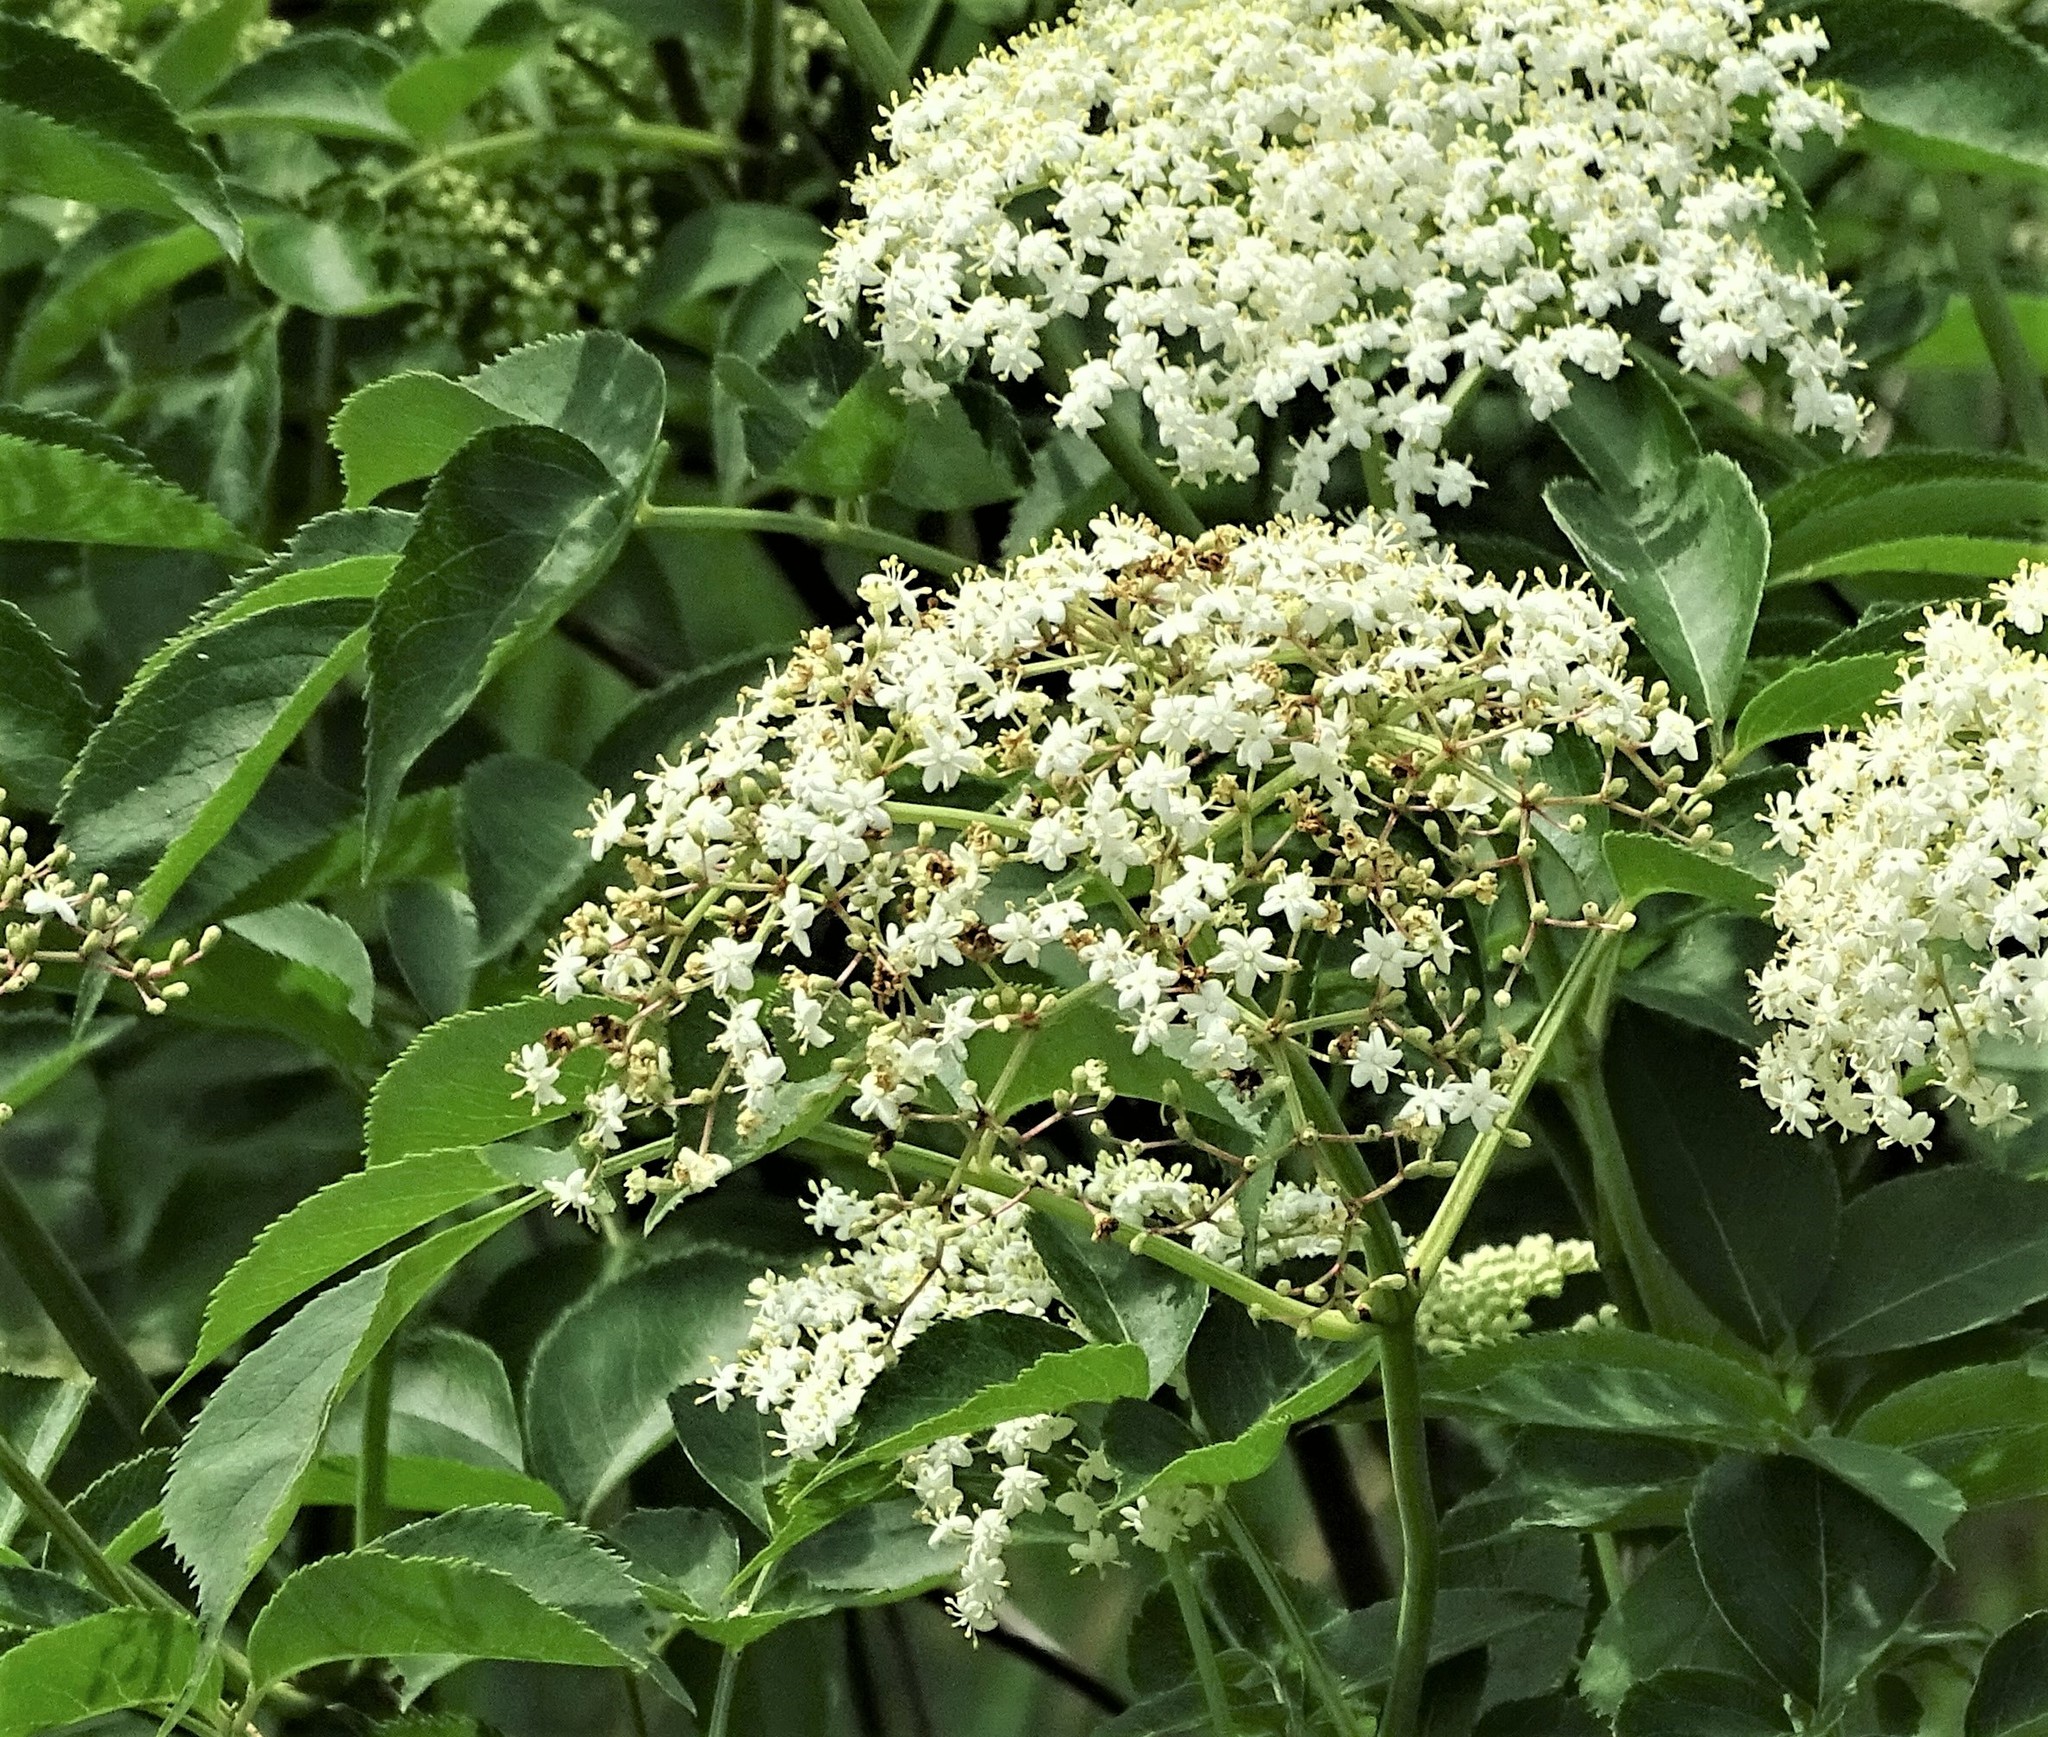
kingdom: Plantae
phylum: Tracheophyta
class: Magnoliopsida
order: Dipsacales
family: Viburnaceae
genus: Sambucus
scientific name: Sambucus canadensis
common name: American elder
